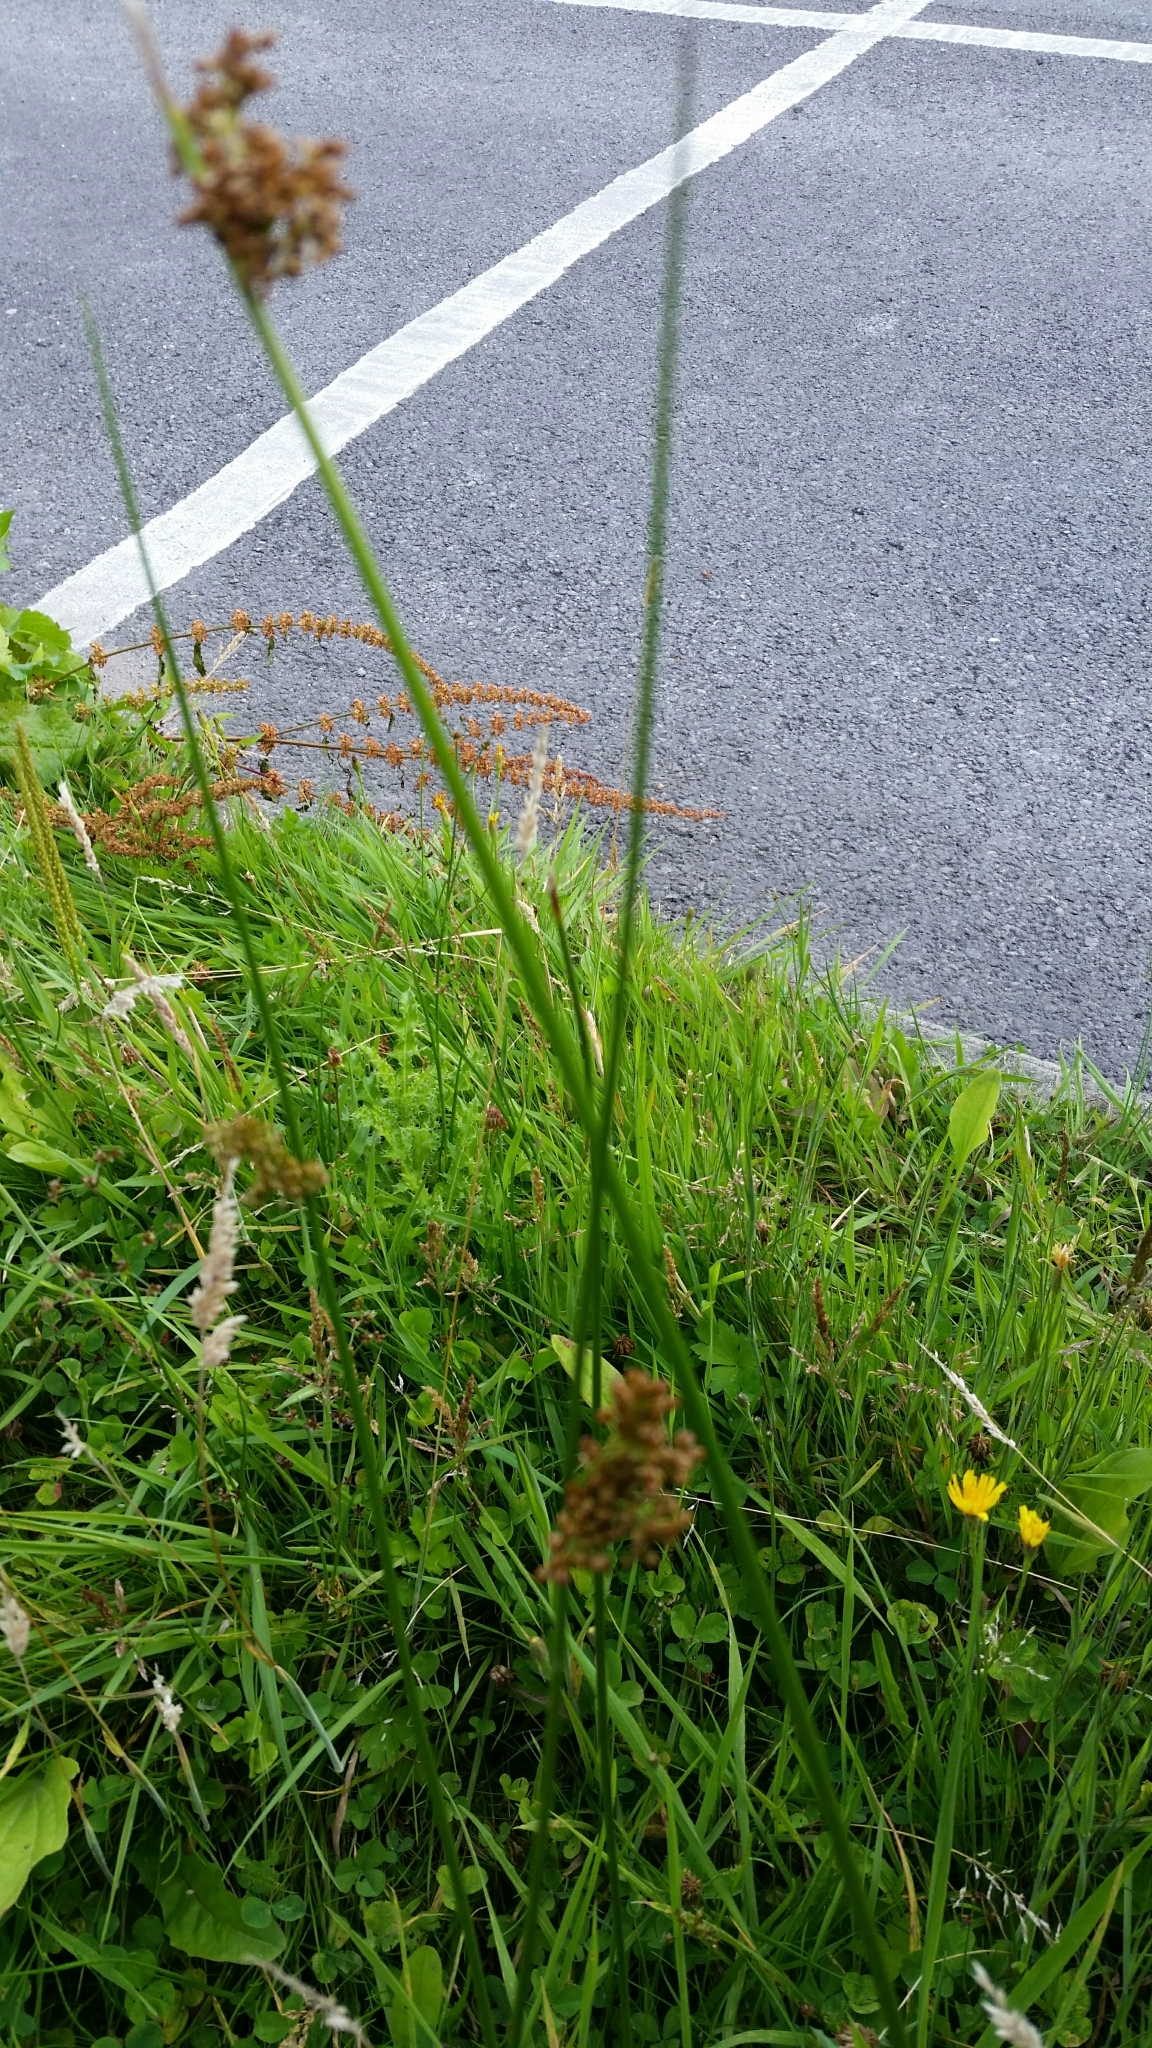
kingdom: Plantae
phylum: Tracheophyta
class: Liliopsida
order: Poales
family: Juncaceae
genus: Juncus
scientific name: Juncus effusus
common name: Soft rush
